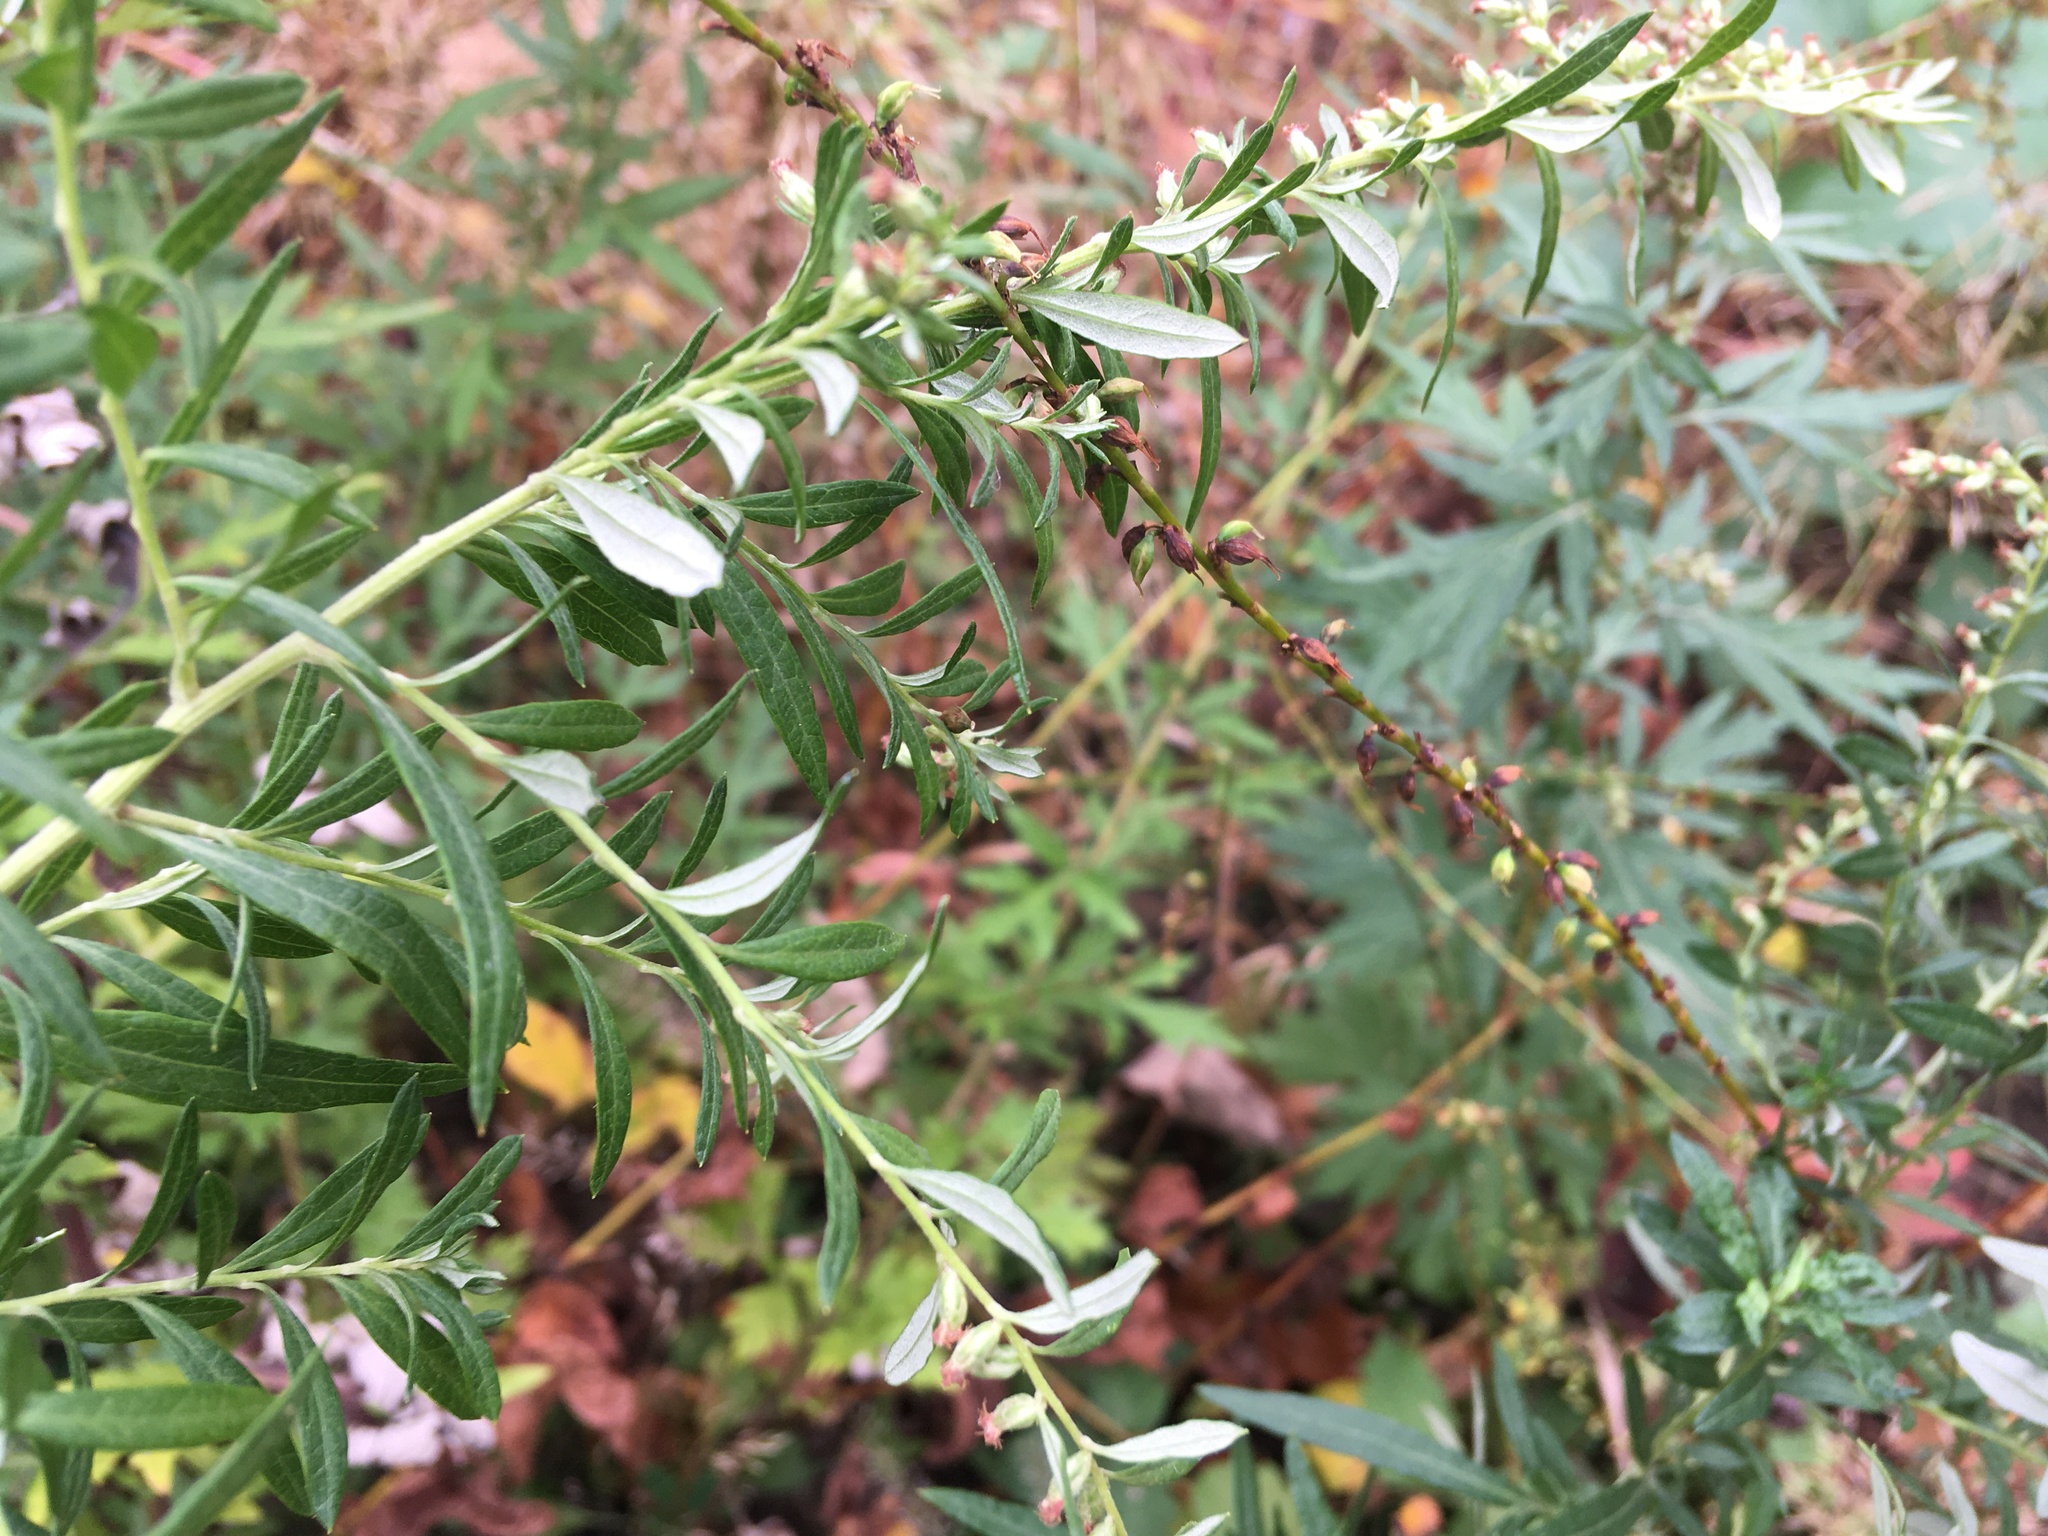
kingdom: Plantae
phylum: Tracheophyta
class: Magnoliopsida
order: Asterales
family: Asteraceae
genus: Artemisia
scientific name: Artemisia vulgaris
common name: Mugwort
